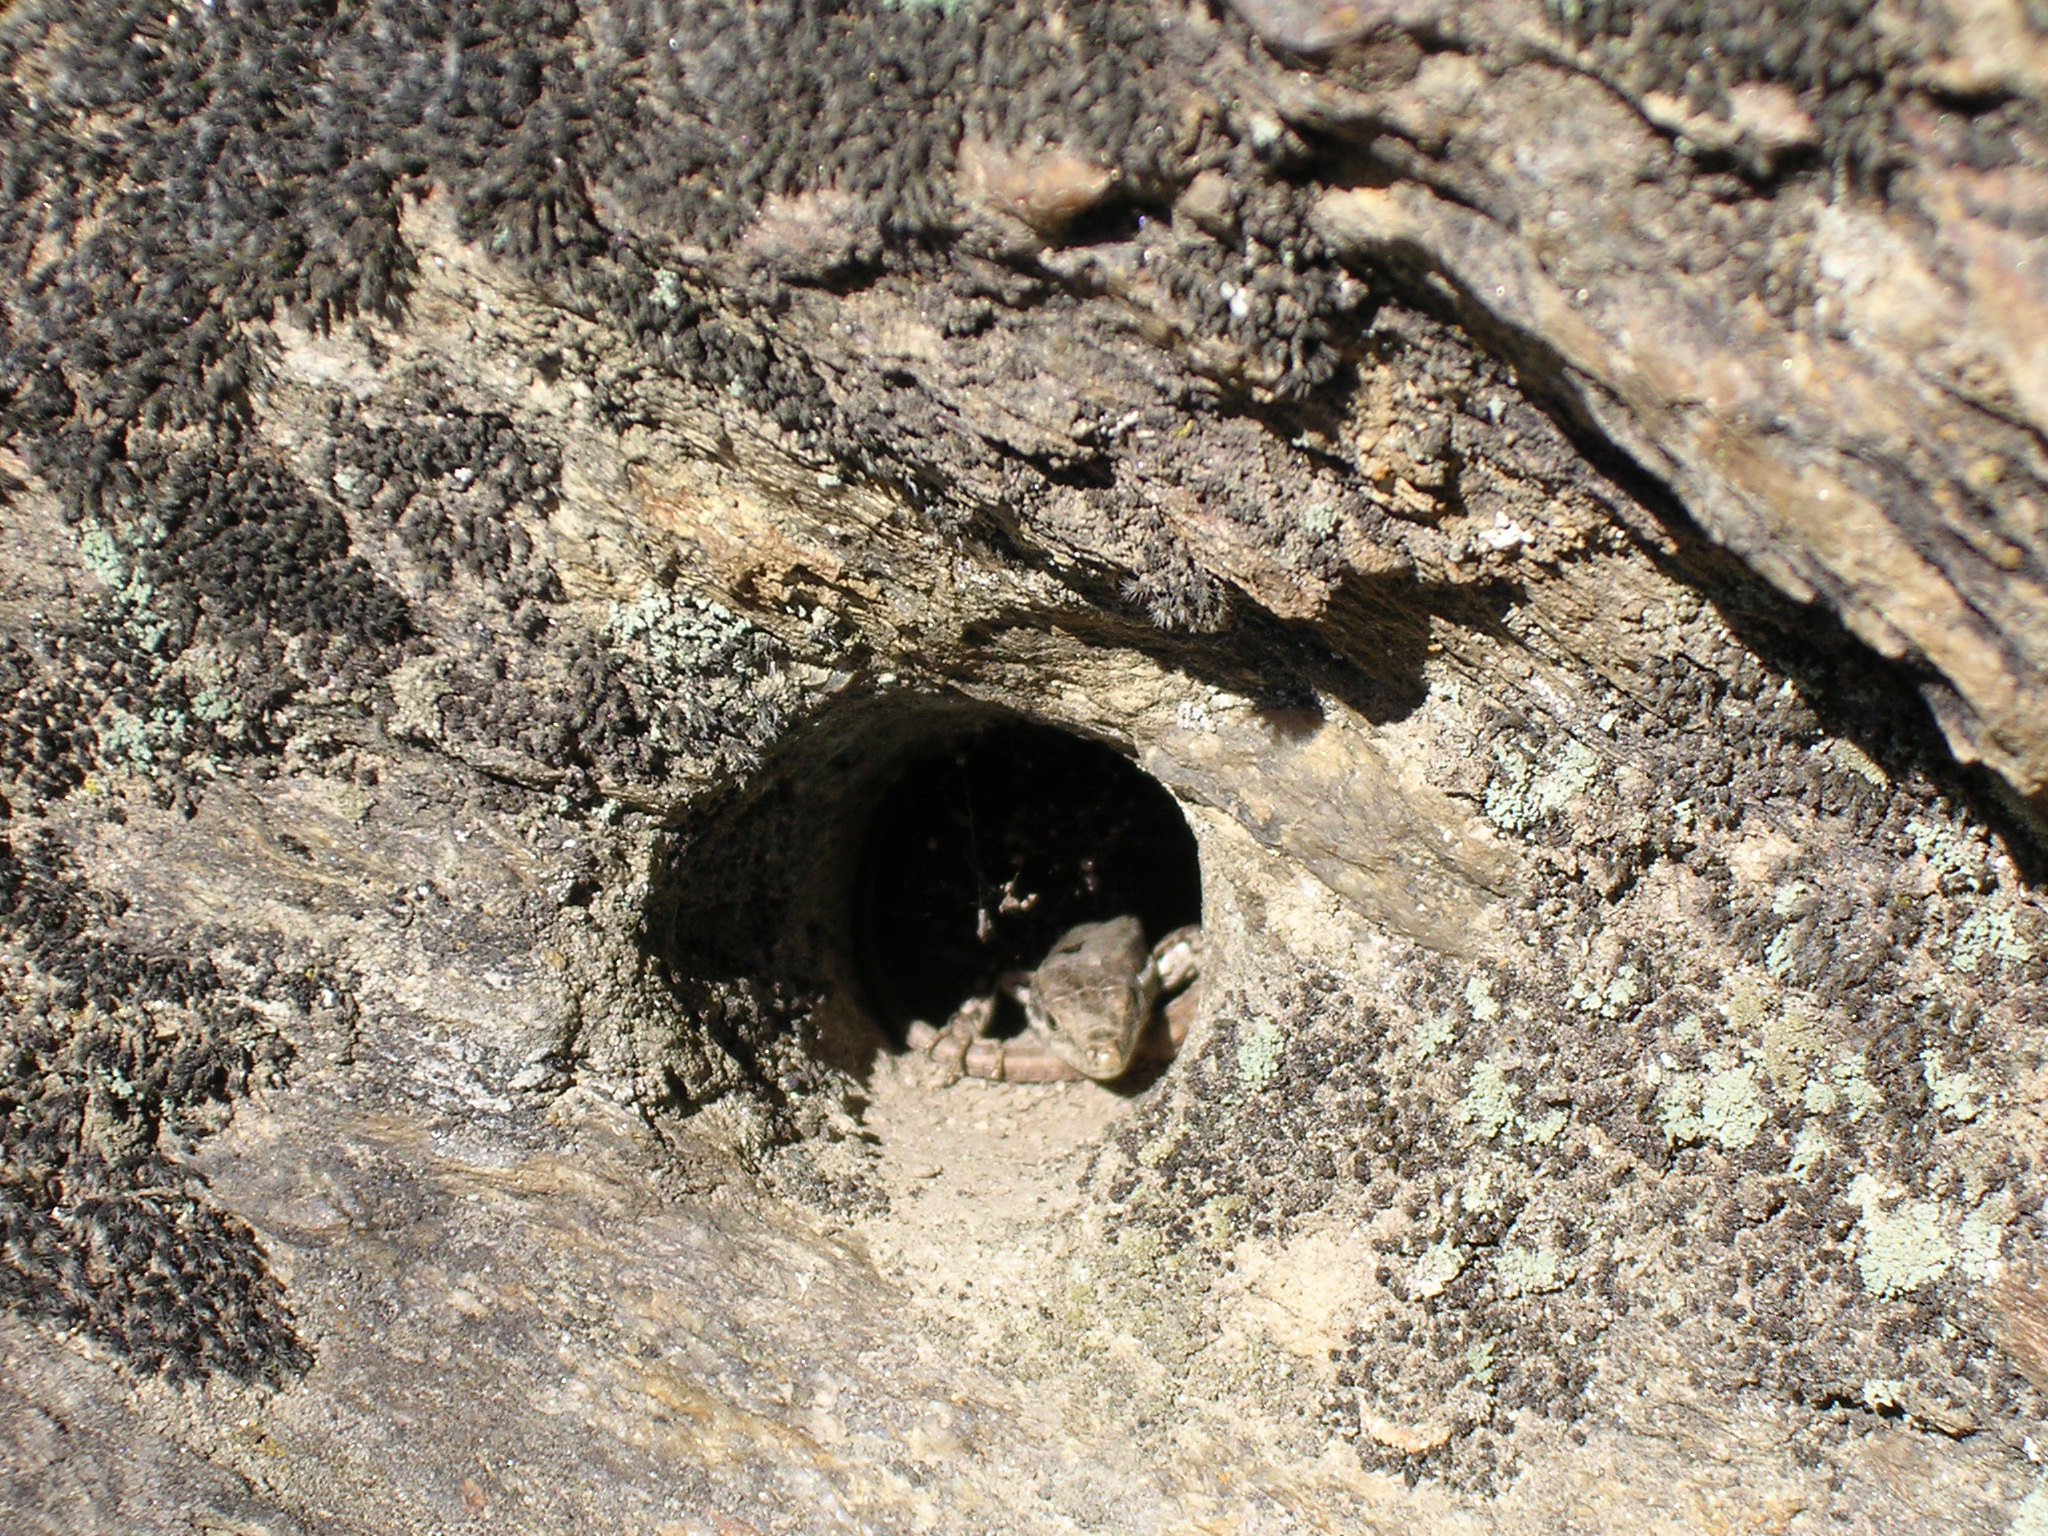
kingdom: Animalia
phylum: Chordata
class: Squamata
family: Lacertidae
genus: Podarcis
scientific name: Podarcis muralis
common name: Common wall lizard
